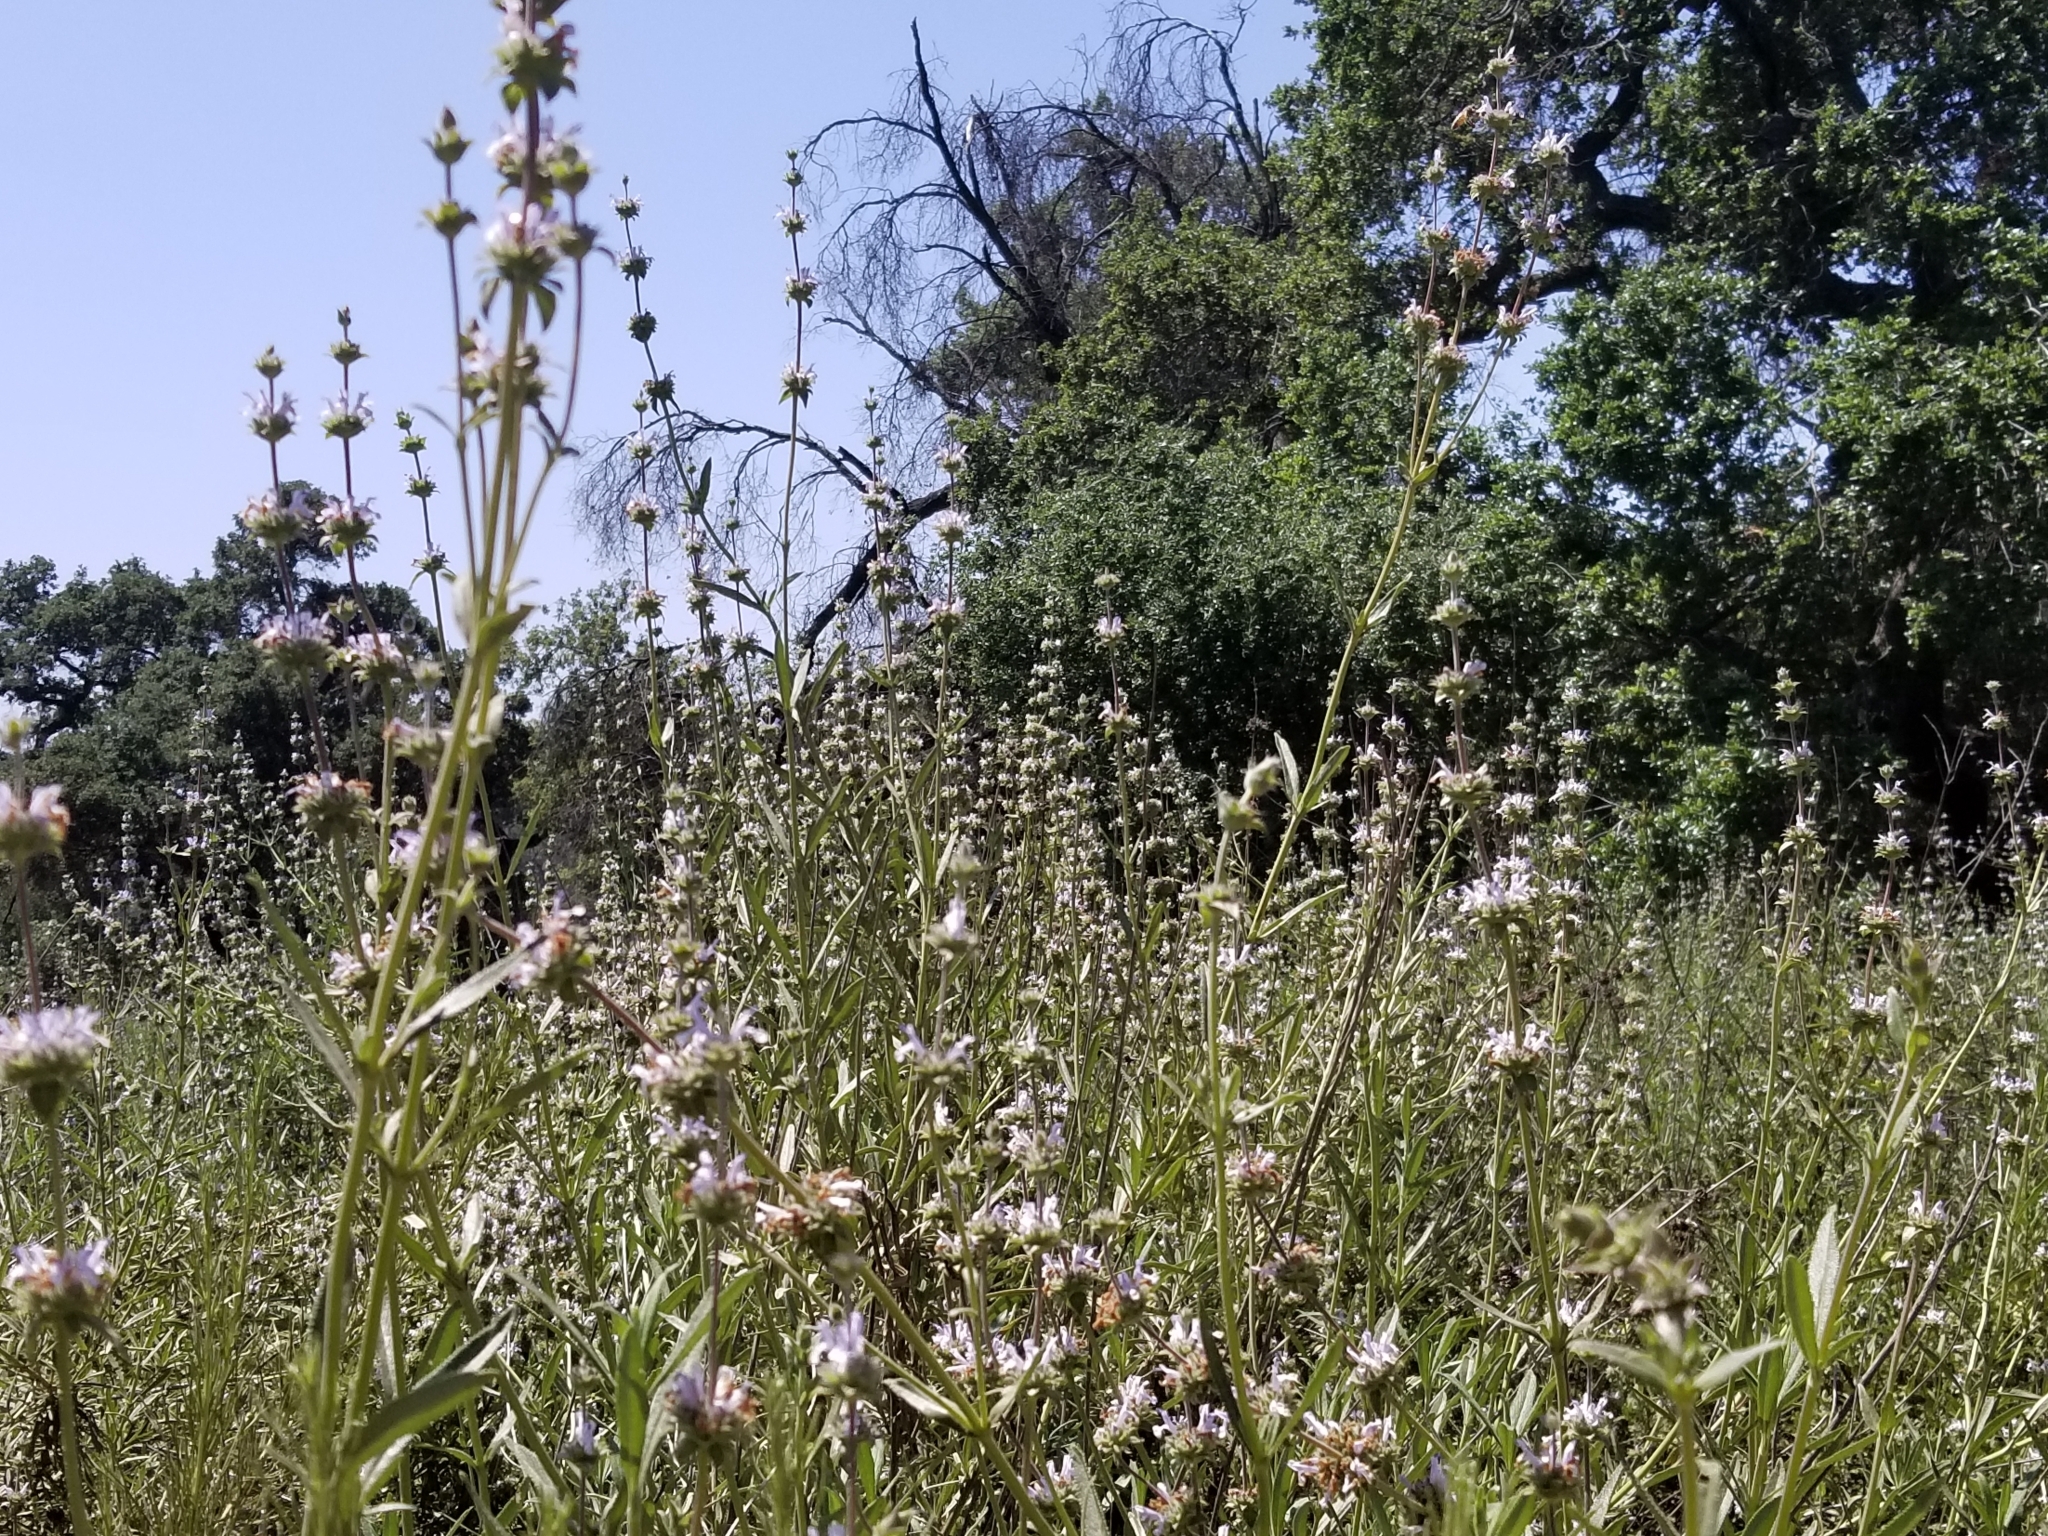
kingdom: Plantae
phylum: Tracheophyta
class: Magnoliopsida
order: Lamiales
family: Lamiaceae
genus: Salvia
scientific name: Salvia mellifera
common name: Black sage
